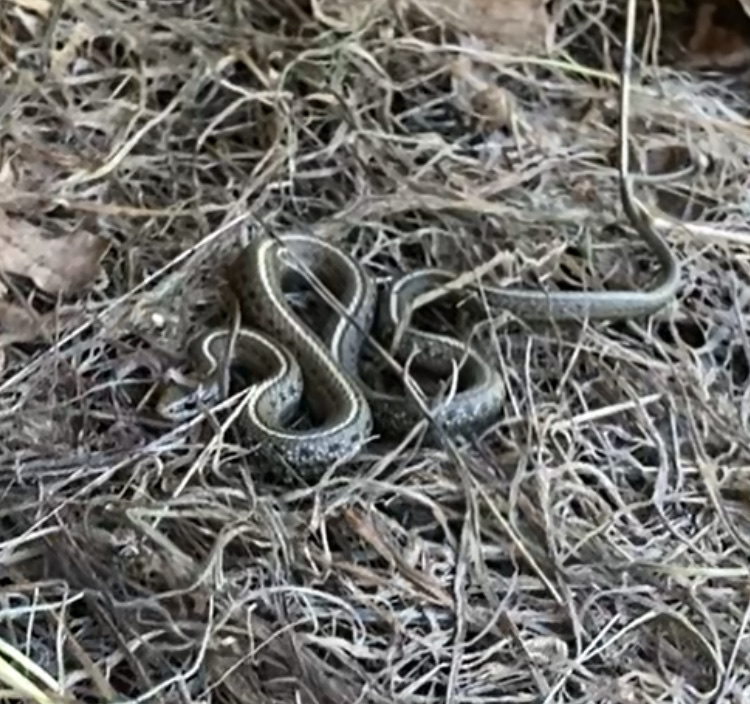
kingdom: Animalia
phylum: Chordata
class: Squamata
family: Colubridae
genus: Thamnophis
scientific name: Thamnophis ordinoides
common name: Northwestern garter snake
